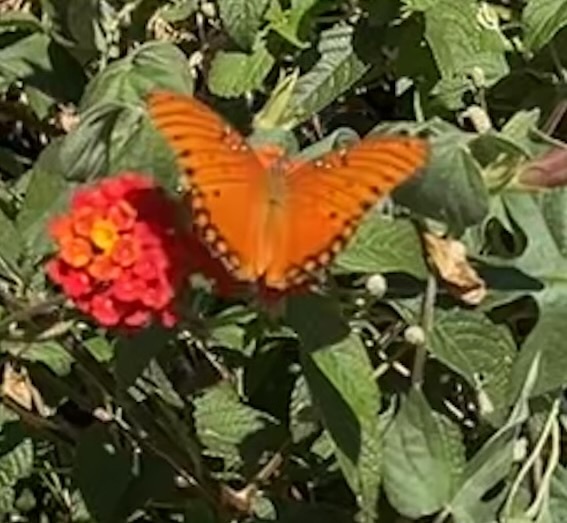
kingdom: Animalia
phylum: Arthropoda
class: Insecta
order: Lepidoptera
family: Nymphalidae
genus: Dione
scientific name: Dione vanillae
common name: Gulf fritillary
